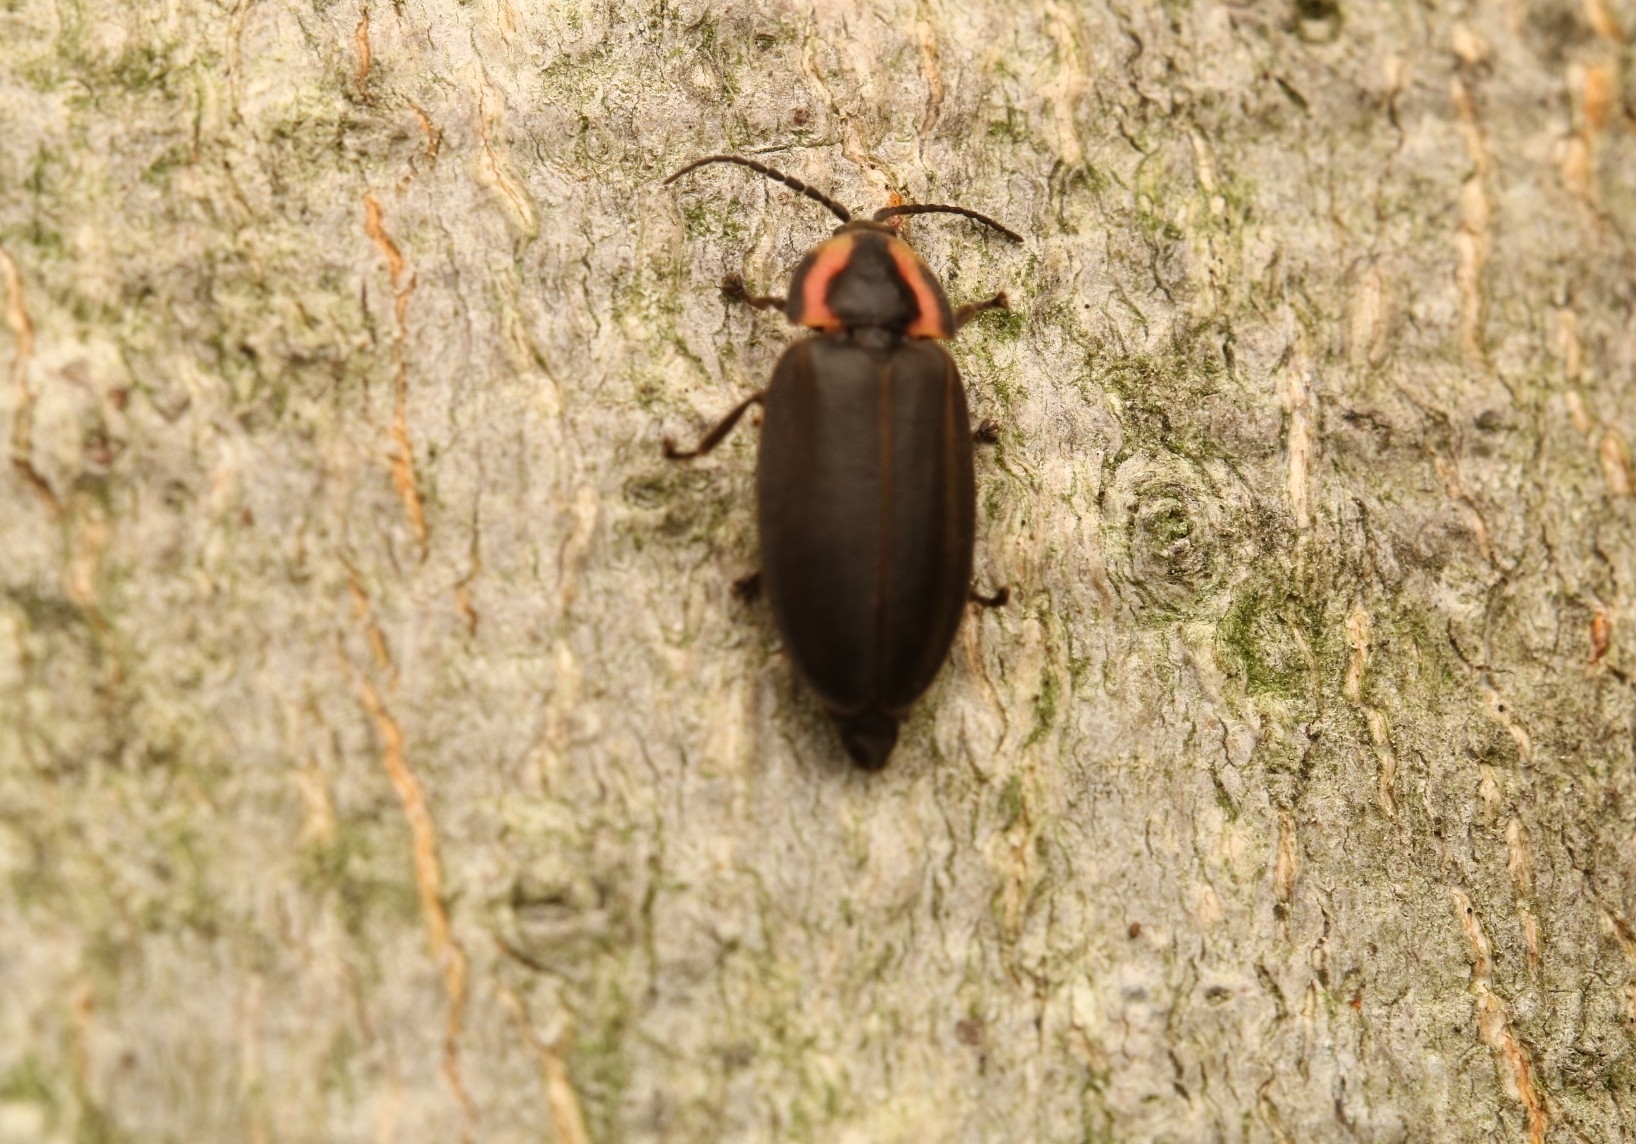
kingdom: Animalia
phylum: Arthropoda
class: Insecta
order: Coleoptera
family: Lampyridae
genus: Photinus
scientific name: Photinus corrusca
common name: Winter firefly
